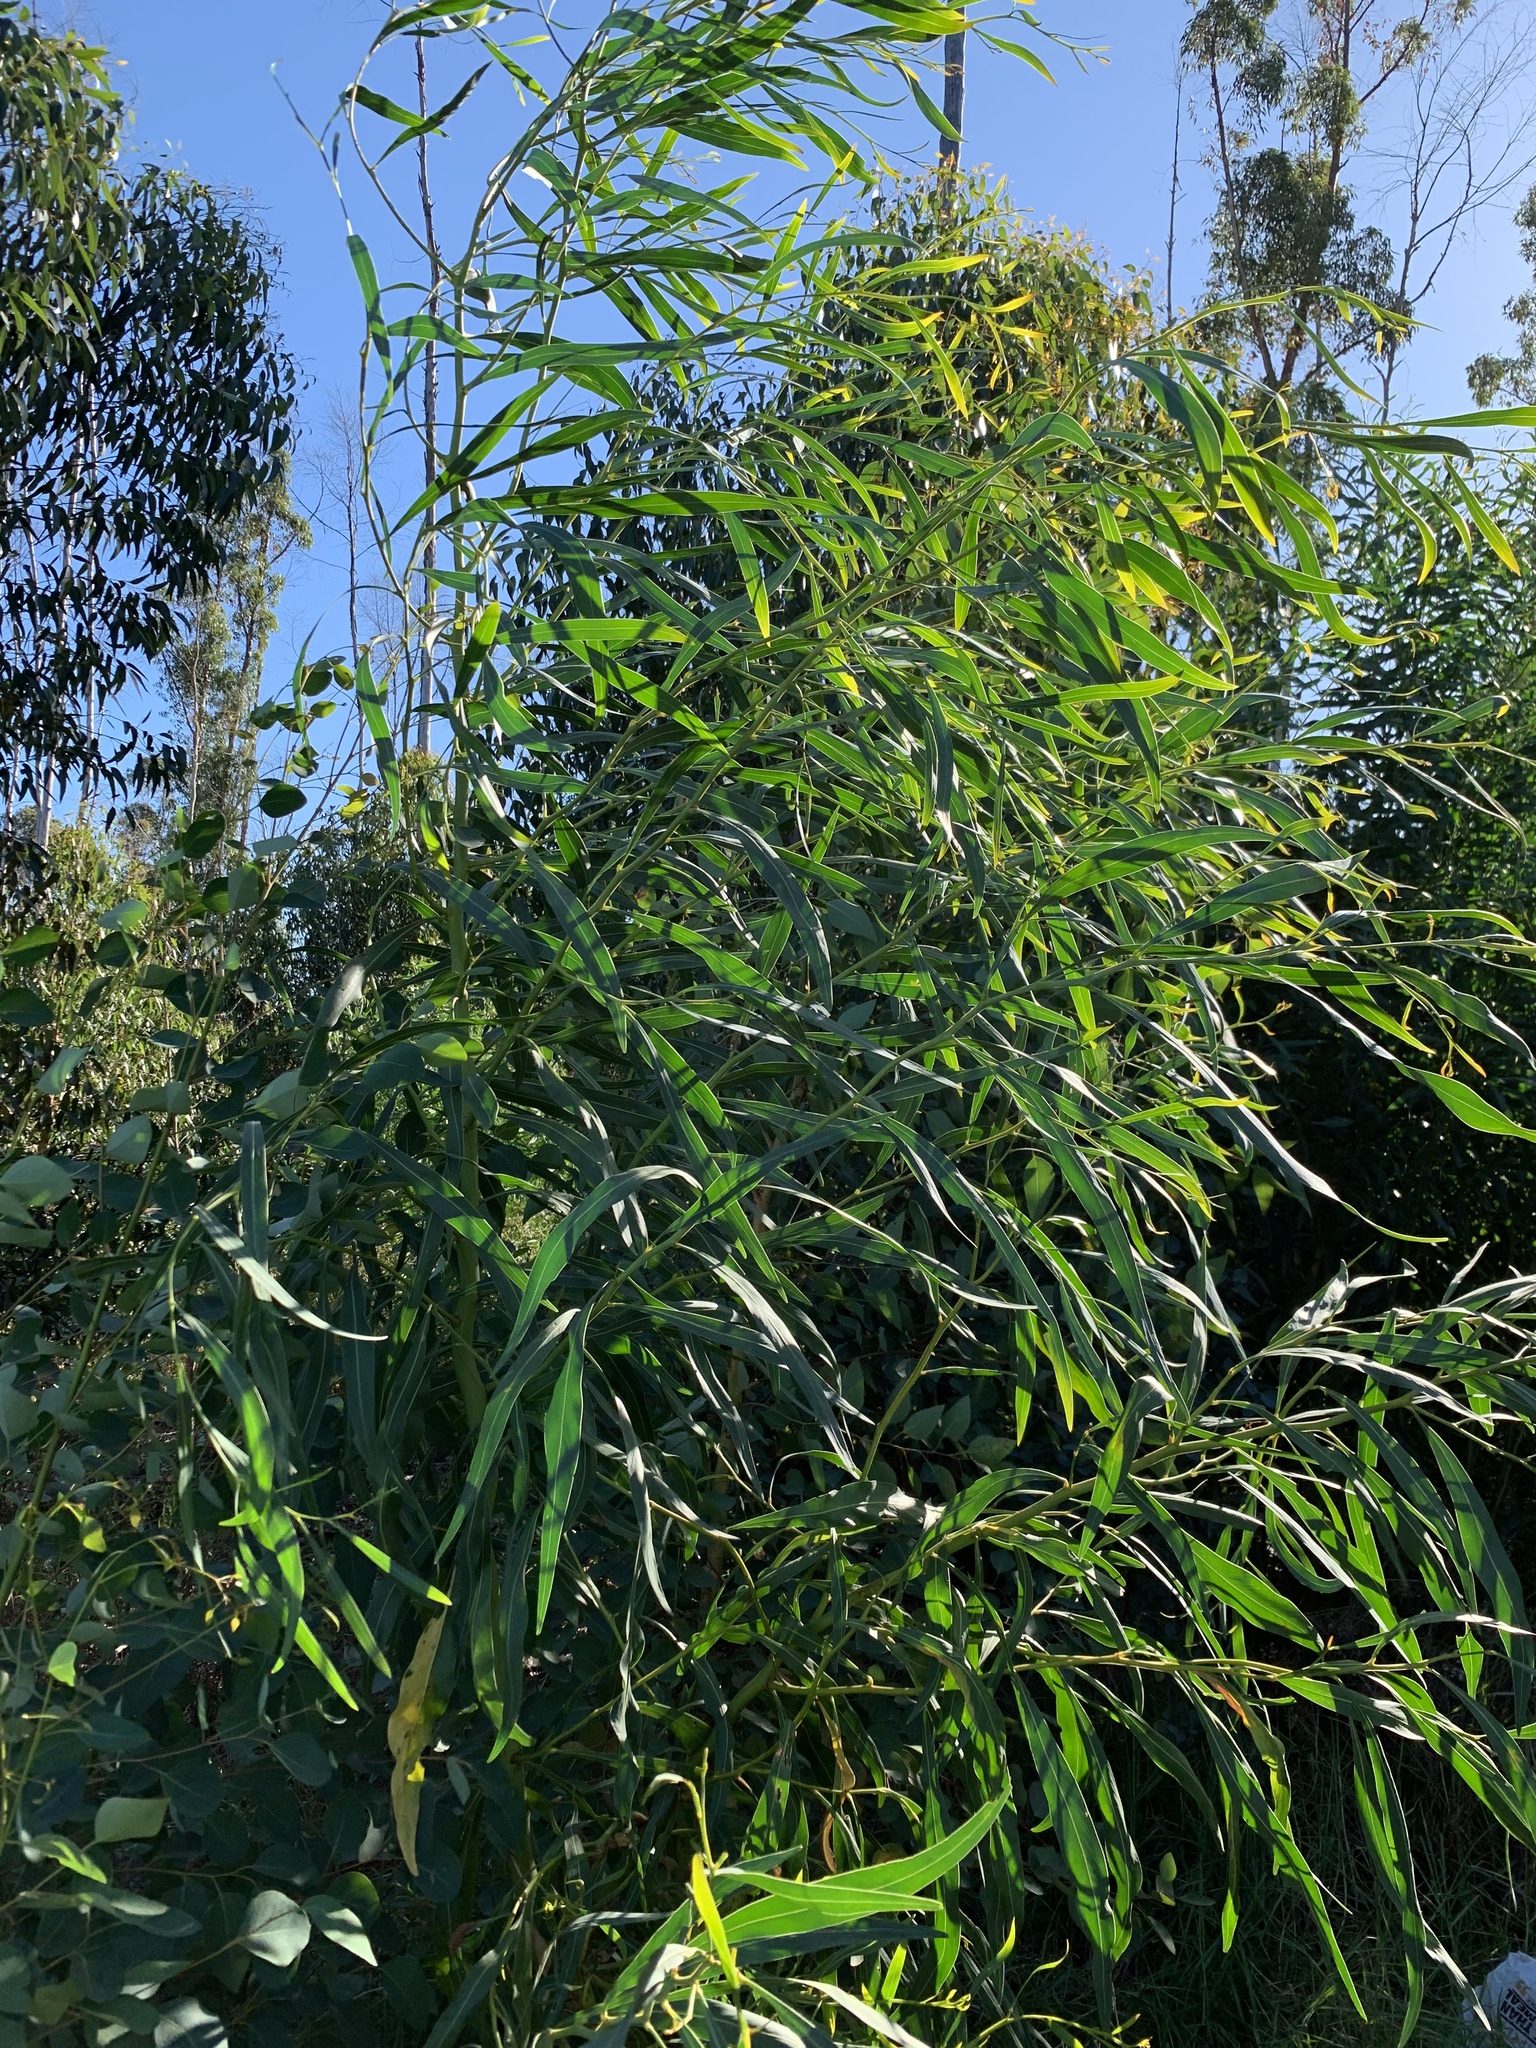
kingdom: Plantae
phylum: Tracheophyta
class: Magnoliopsida
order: Fabales
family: Fabaceae
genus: Acacia
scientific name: Acacia saligna
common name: Orange wattle
